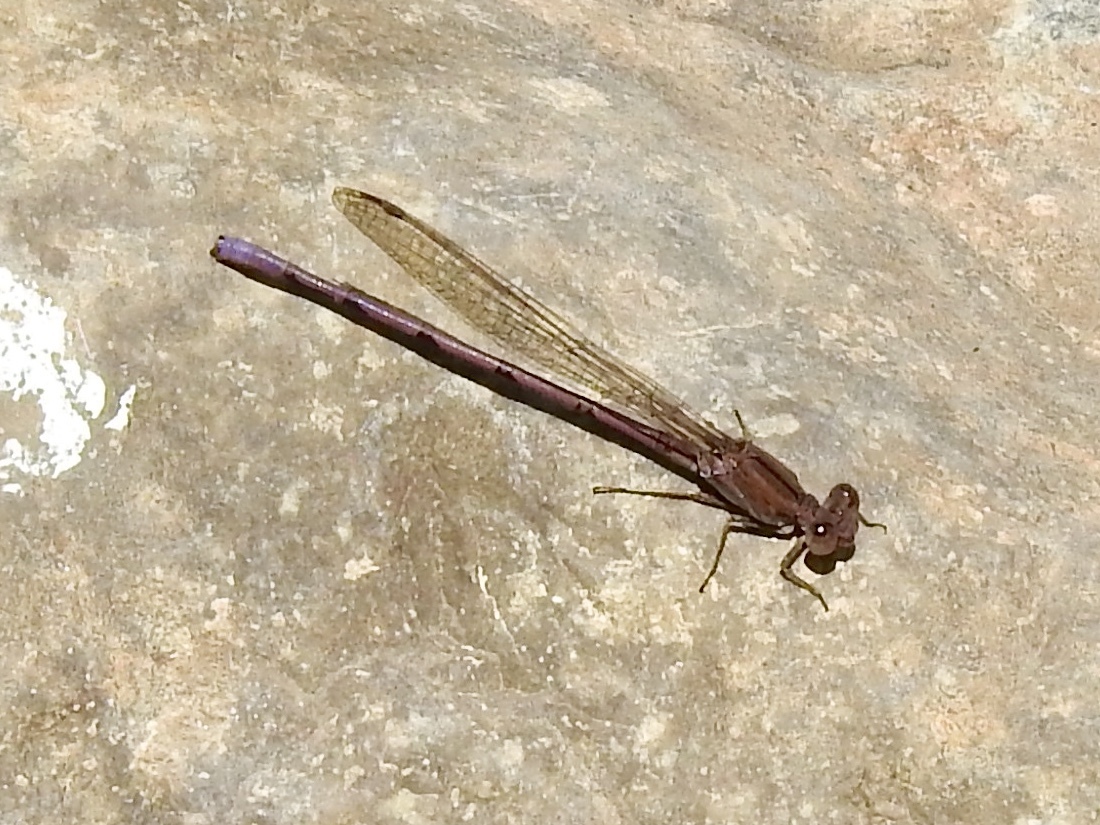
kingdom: Animalia
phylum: Arthropoda
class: Insecta
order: Odonata
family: Coenagrionidae
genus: Argia
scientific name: Argia pallens
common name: Amethyst dancer
